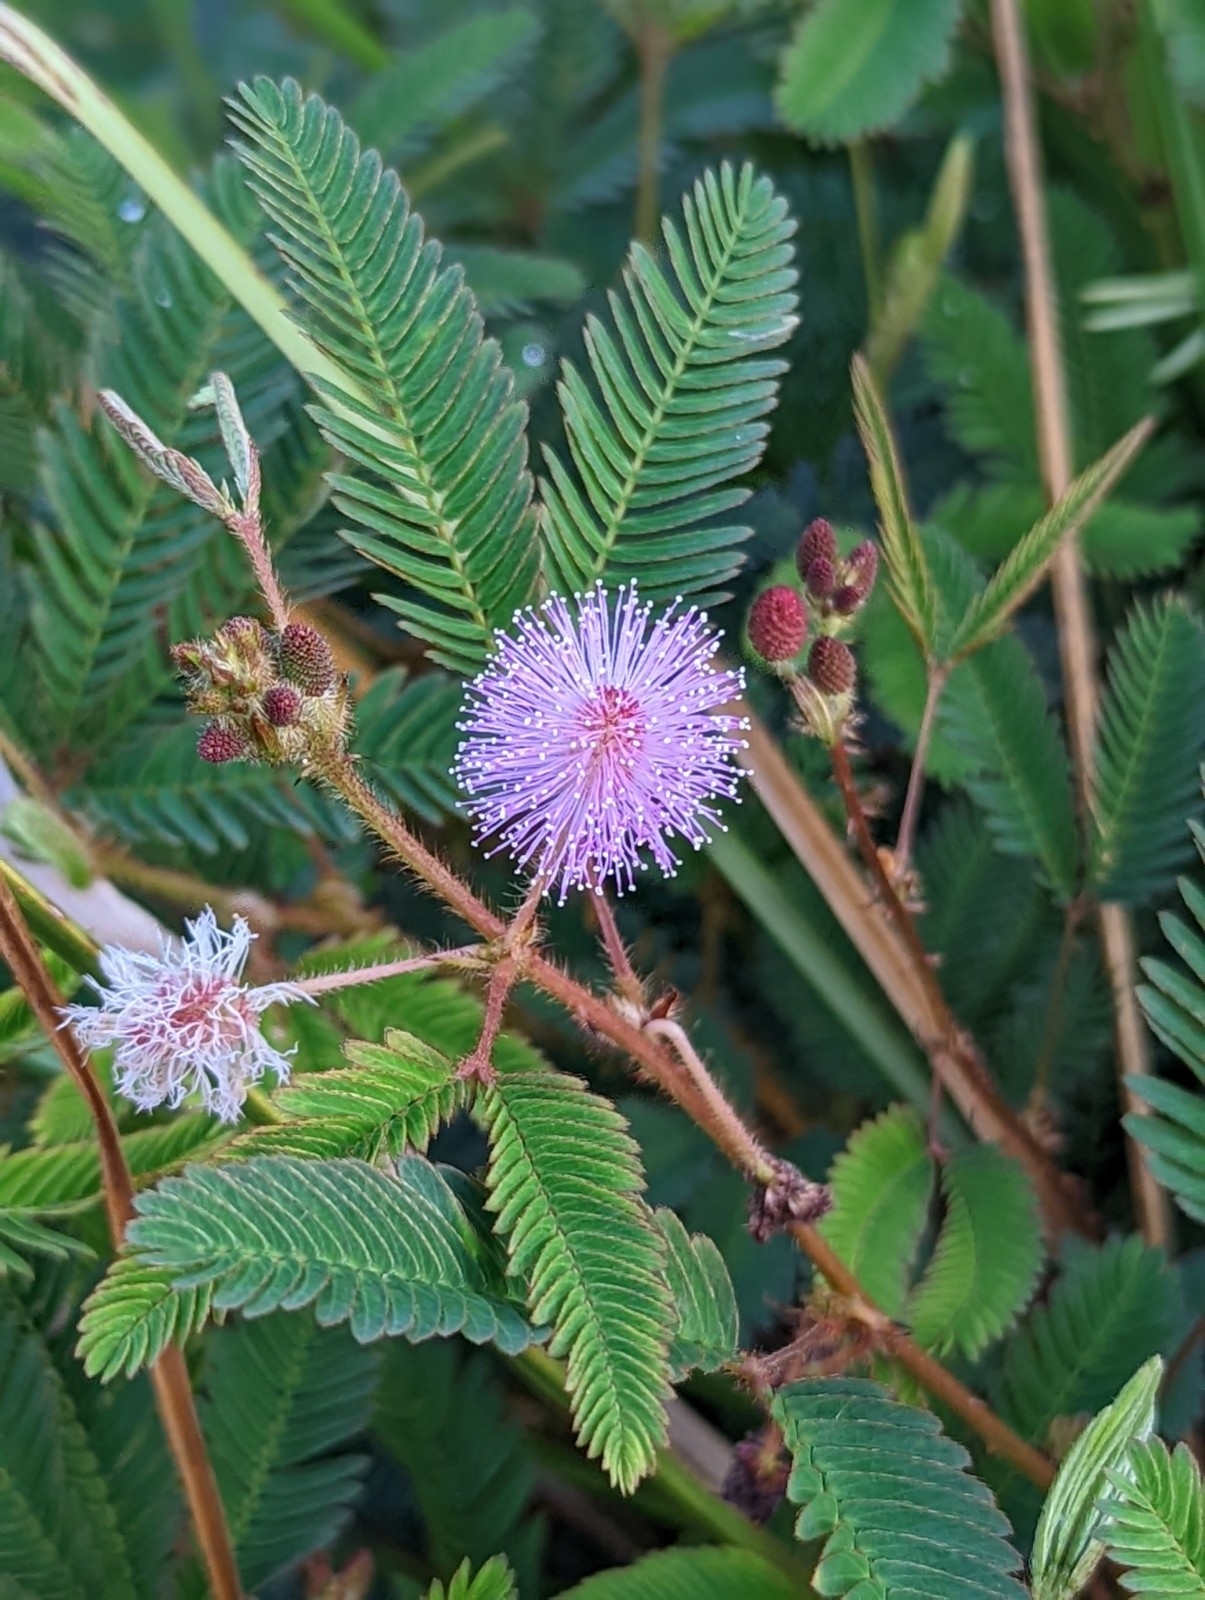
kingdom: Plantae
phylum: Tracheophyta
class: Magnoliopsida
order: Fabales
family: Fabaceae
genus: Mimosa
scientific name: Mimosa pudica
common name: Sensitive plant
